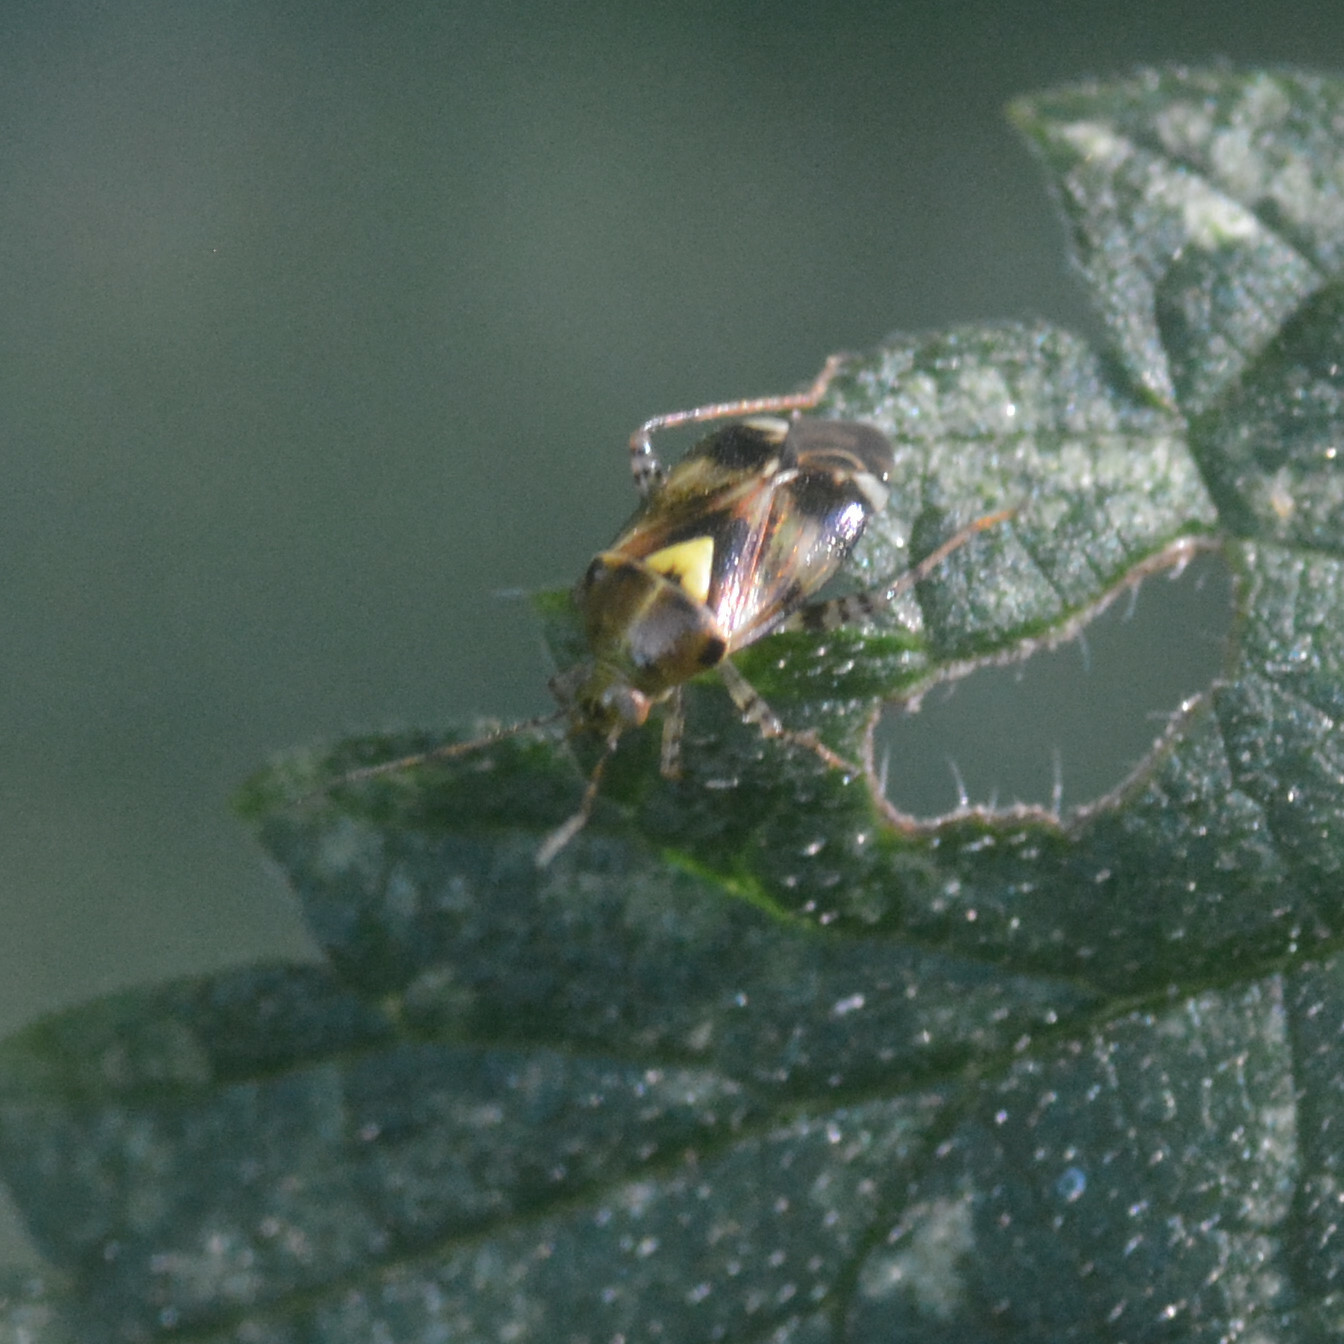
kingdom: Animalia
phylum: Arthropoda
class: Insecta
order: Hemiptera
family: Miridae
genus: Liocoris
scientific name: Liocoris tripustulatus
